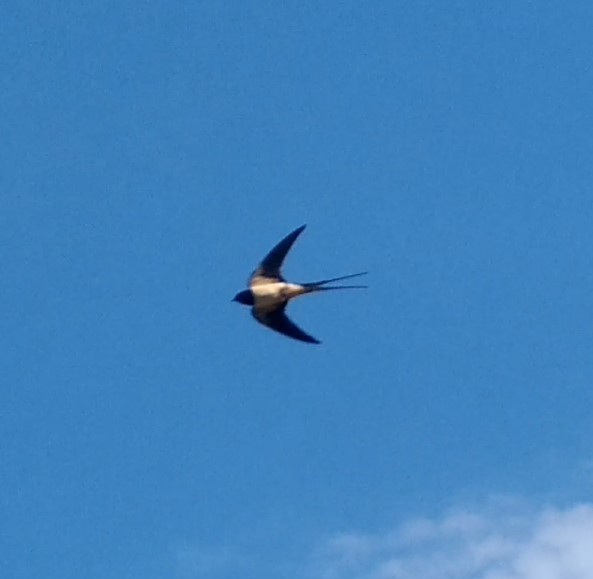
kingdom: Animalia
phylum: Chordata
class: Aves
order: Passeriformes
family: Hirundinidae
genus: Hirundo
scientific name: Hirundo rustica
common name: Barn swallow
